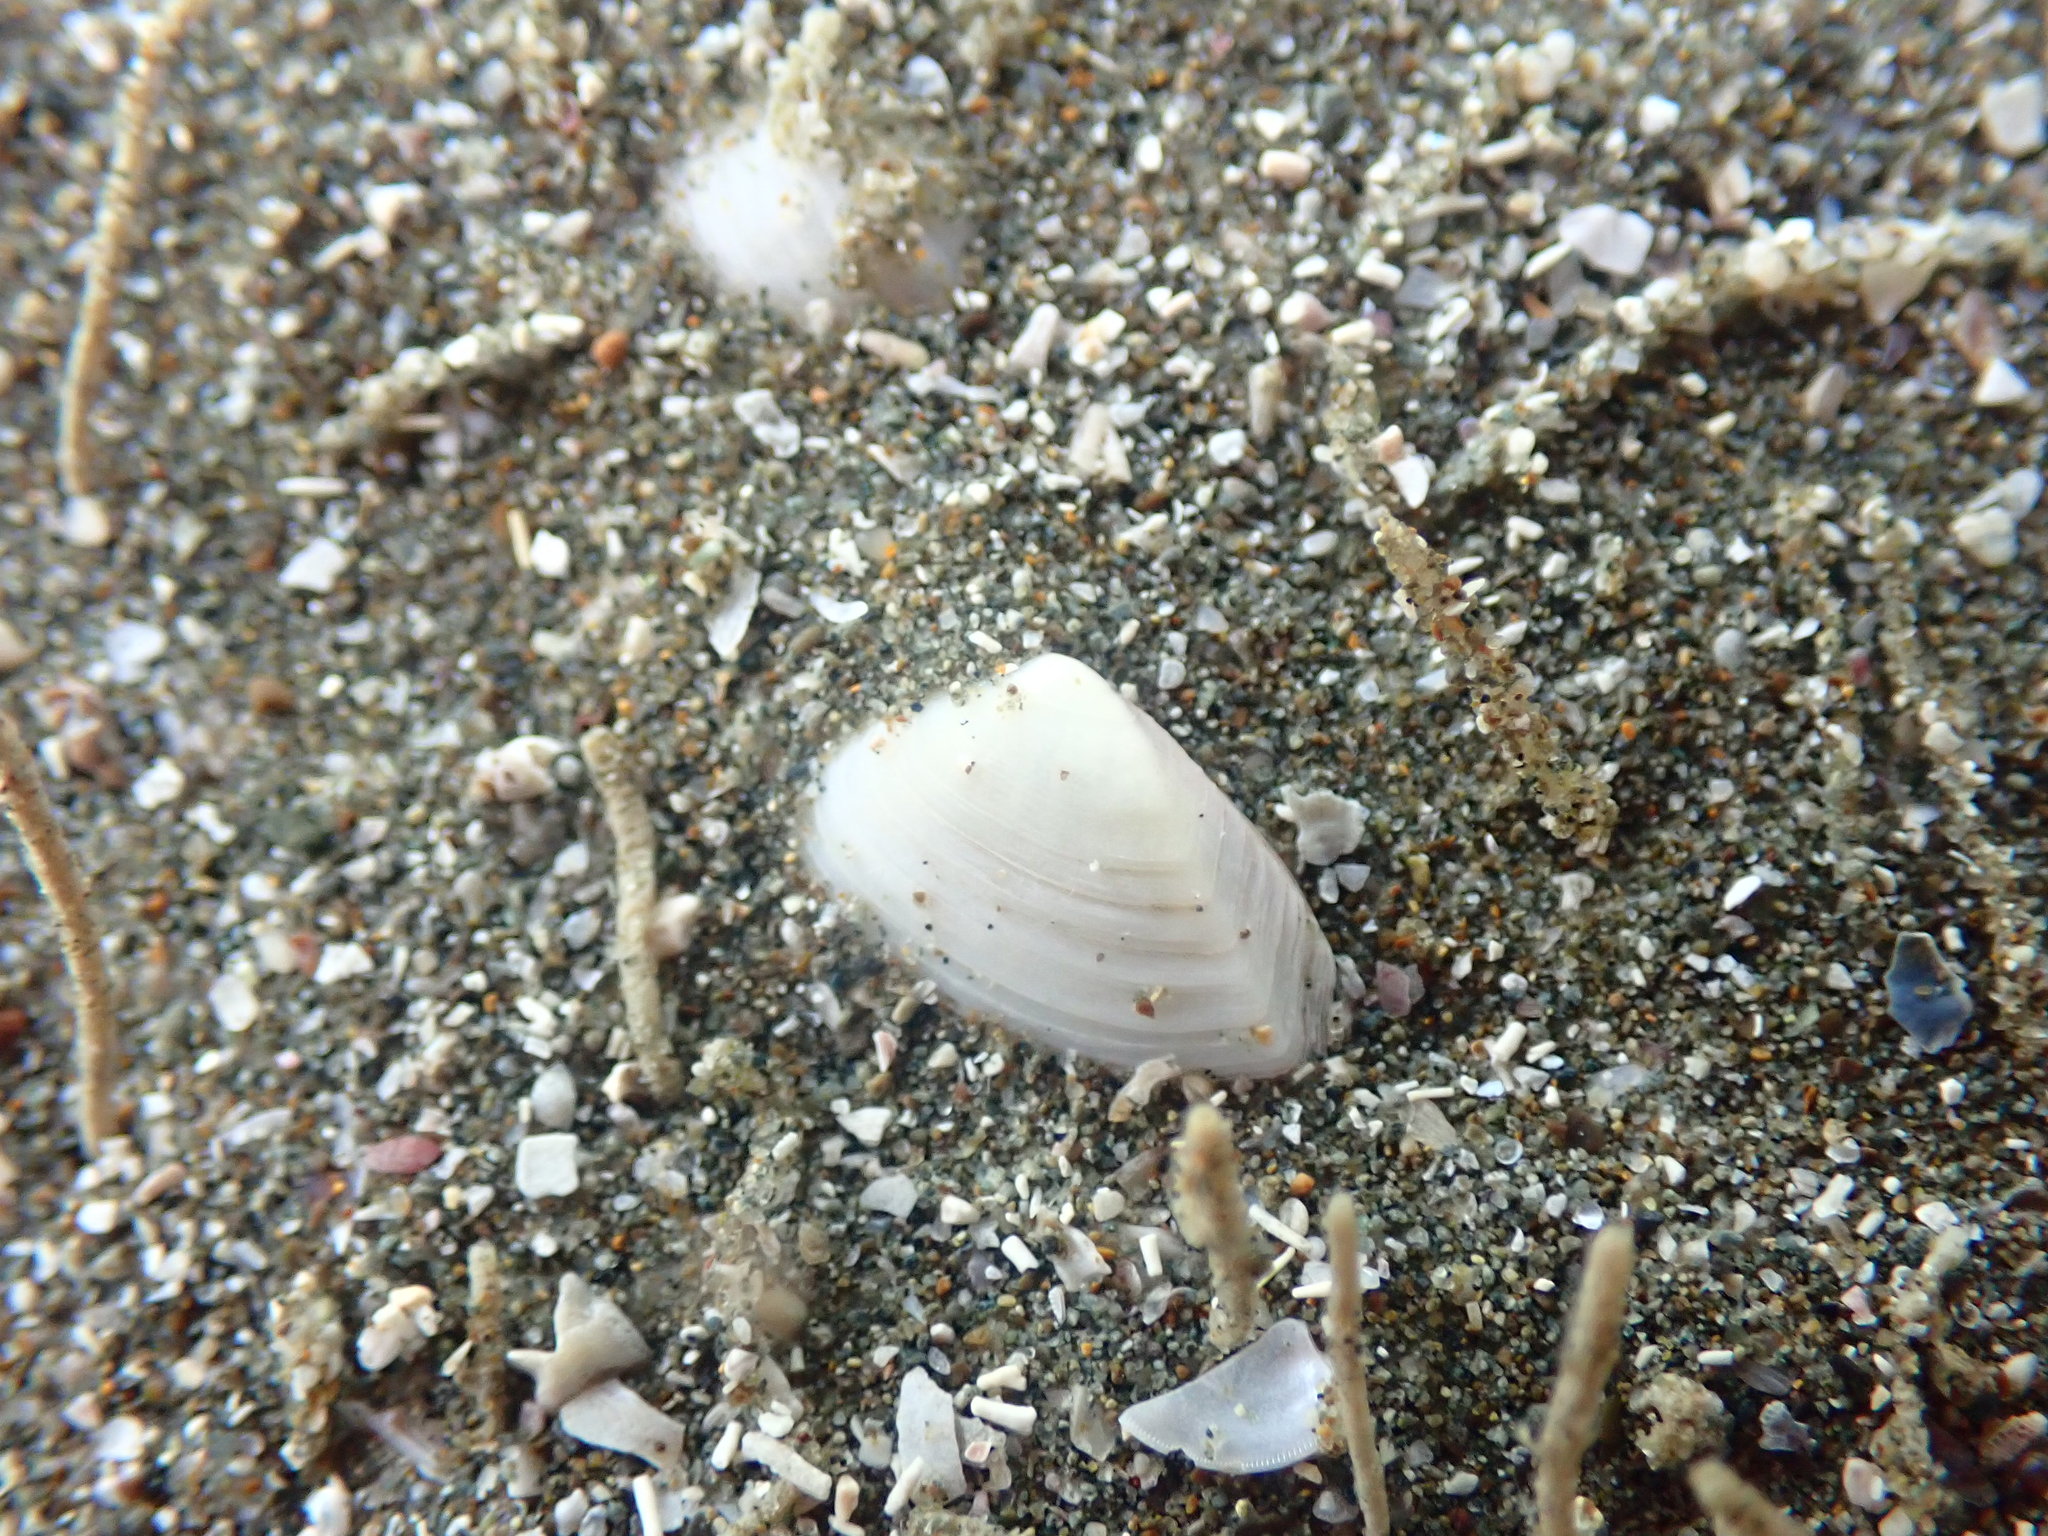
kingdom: Animalia
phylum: Mollusca
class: Bivalvia
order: Myida
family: Corbulidae
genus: Corbula
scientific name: Corbula zelandica
